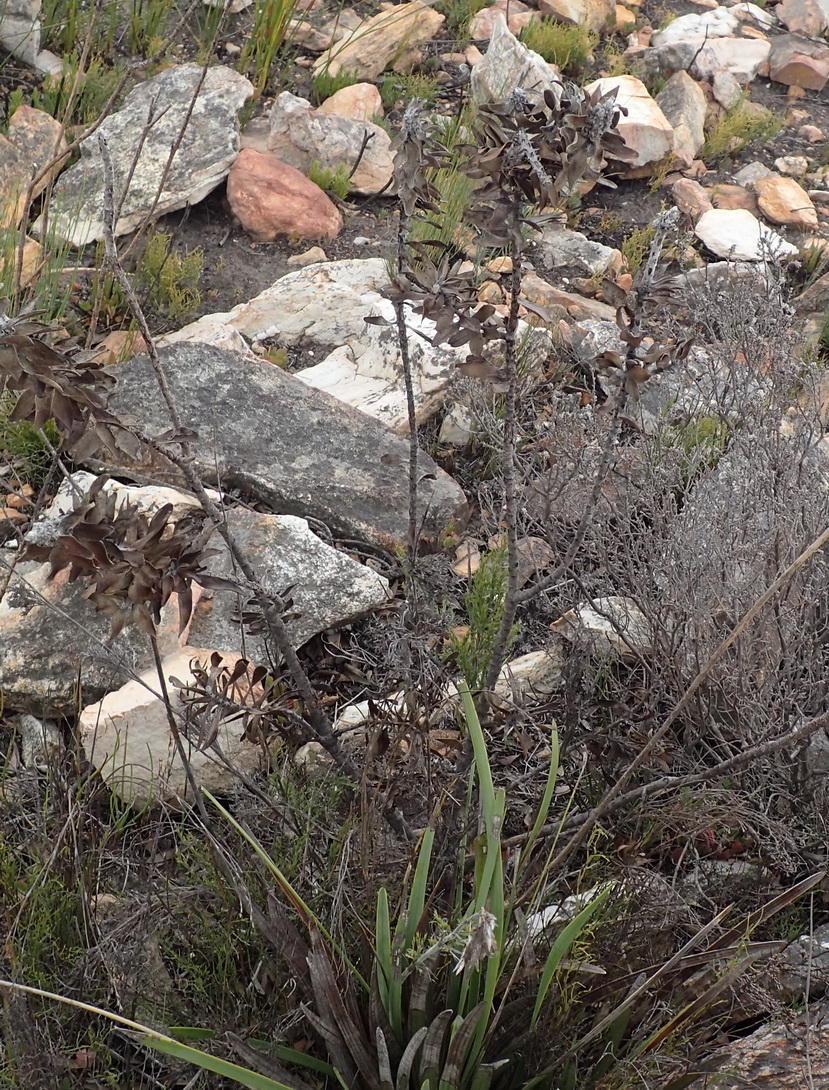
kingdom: Plantae
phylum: Tracheophyta
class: Magnoliopsida
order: Proteales
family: Proteaceae
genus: Mimetes
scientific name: Mimetes chrysanthus
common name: Golden pagoda
